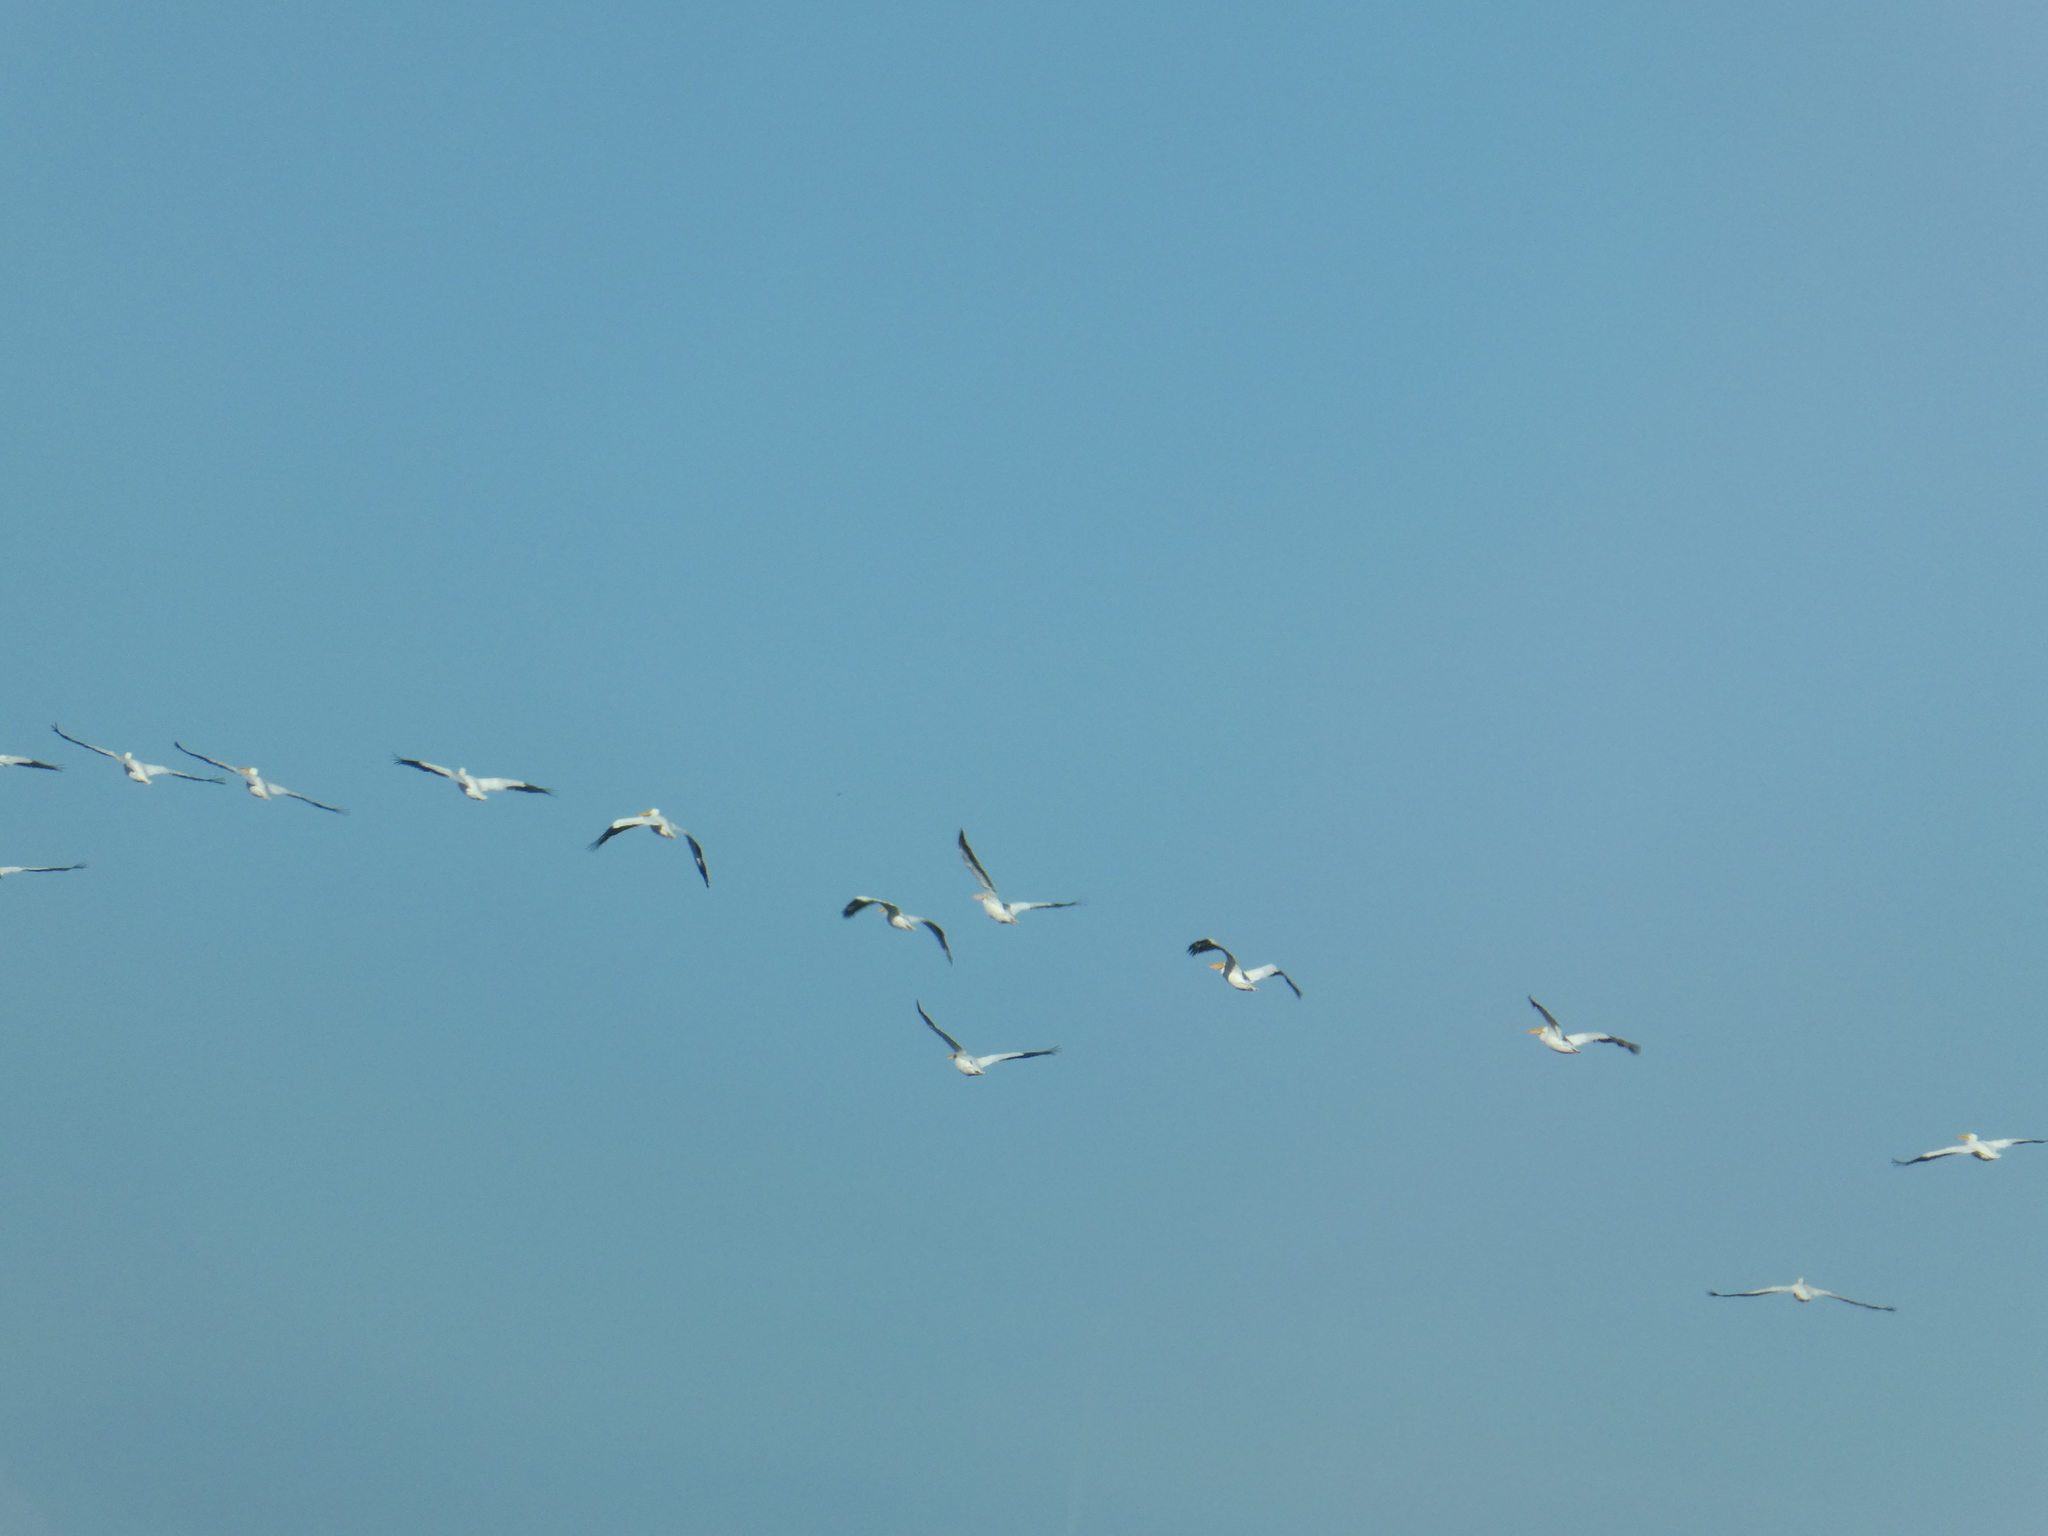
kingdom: Animalia
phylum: Chordata
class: Aves
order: Pelecaniformes
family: Pelecanidae
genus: Pelecanus
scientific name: Pelecanus erythrorhynchos
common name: American white pelican
